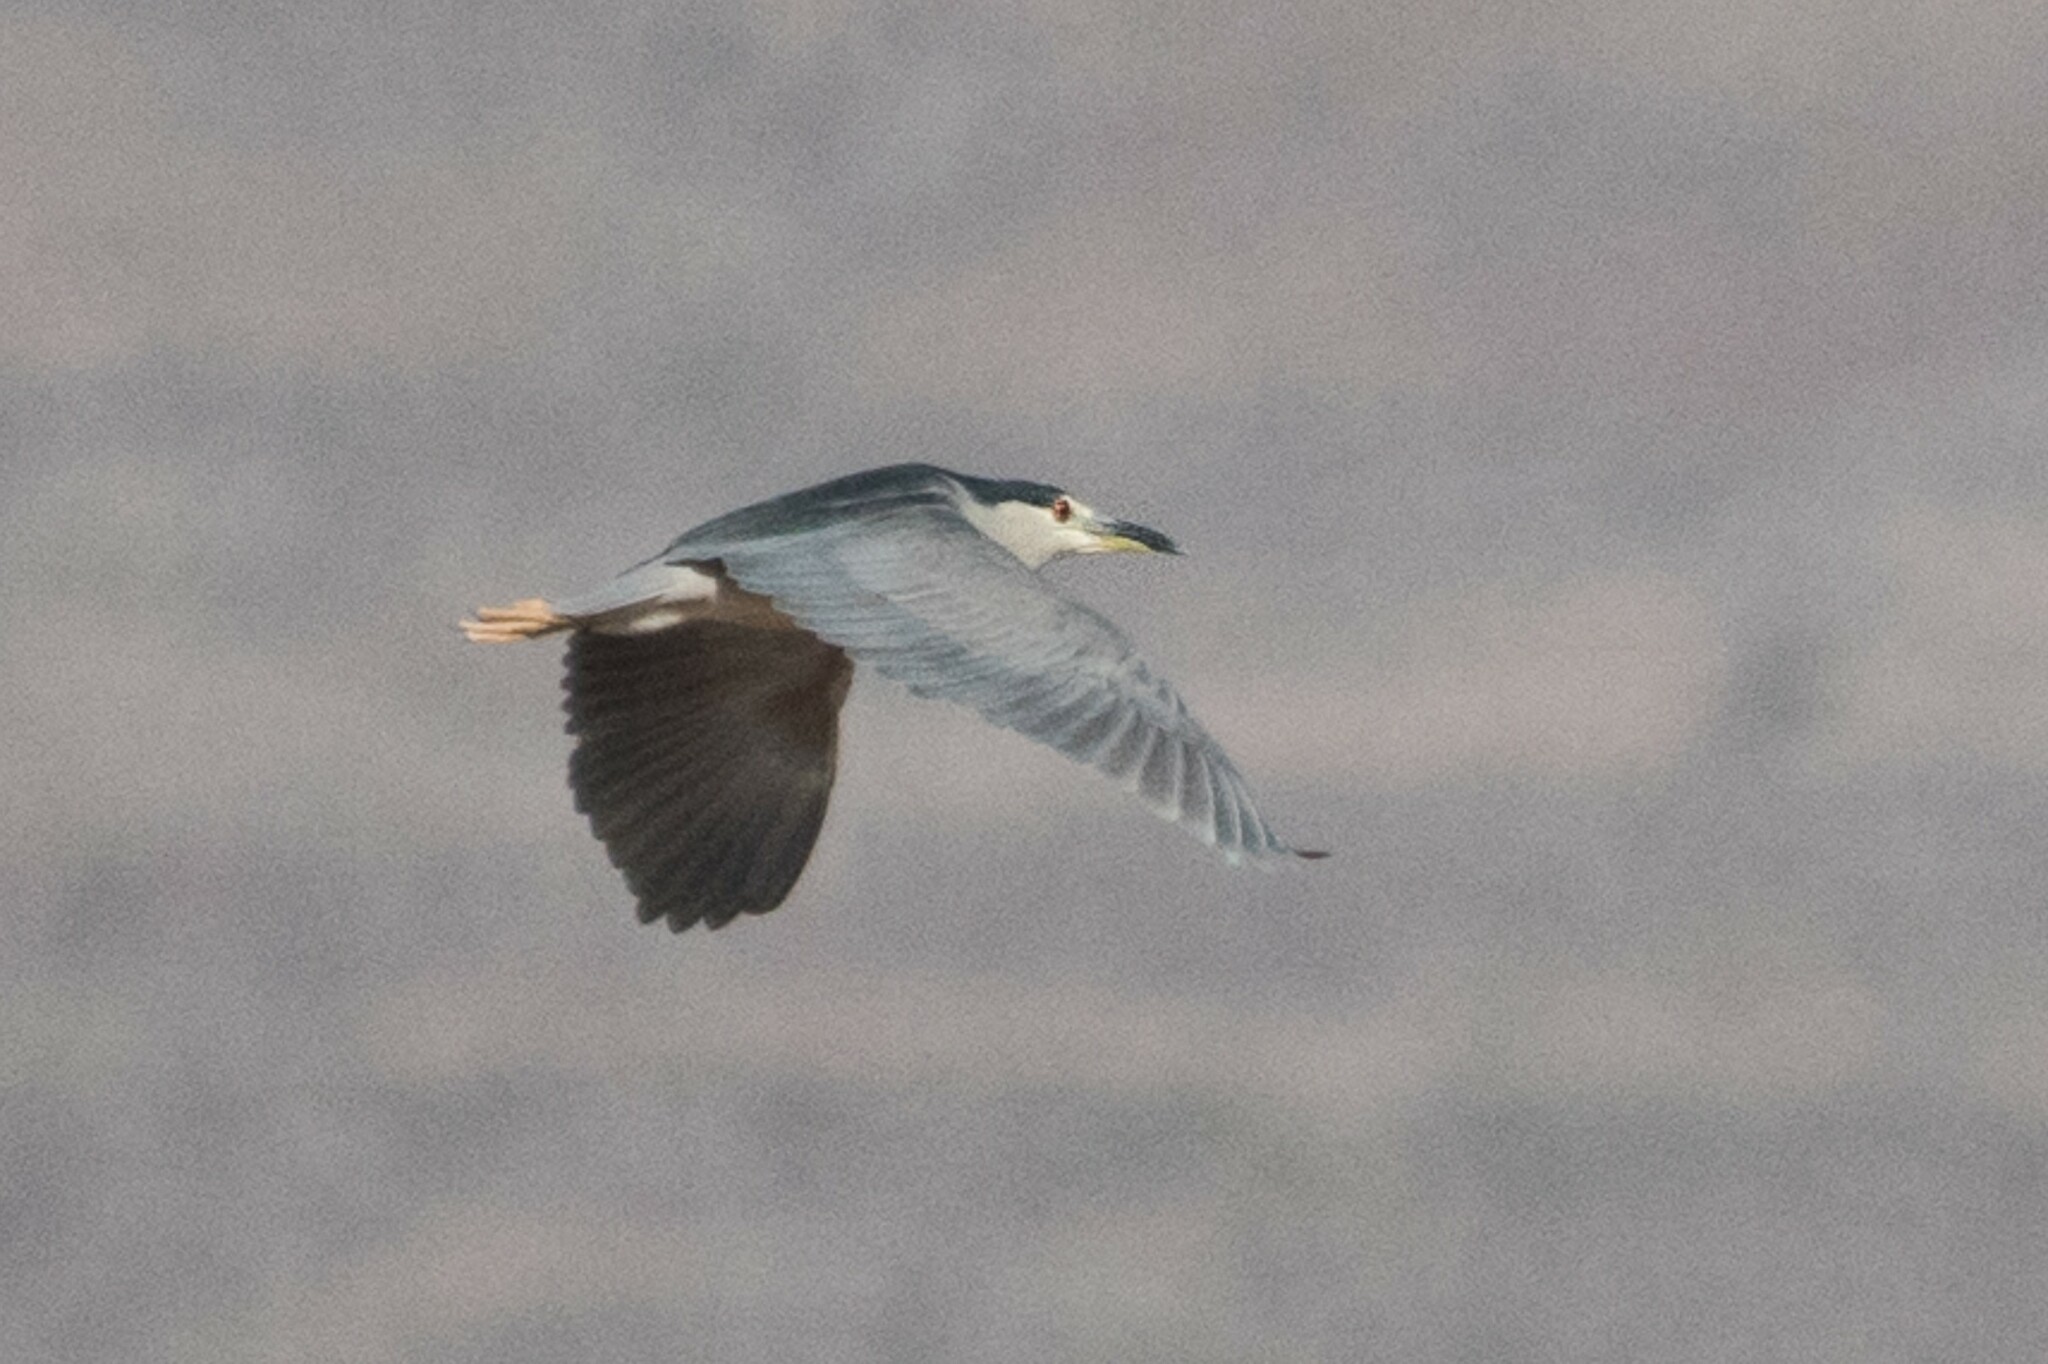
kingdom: Animalia
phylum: Chordata
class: Aves
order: Pelecaniformes
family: Ardeidae
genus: Nycticorax
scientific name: Nycticorax nycticorax
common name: Black-crowned night heron
